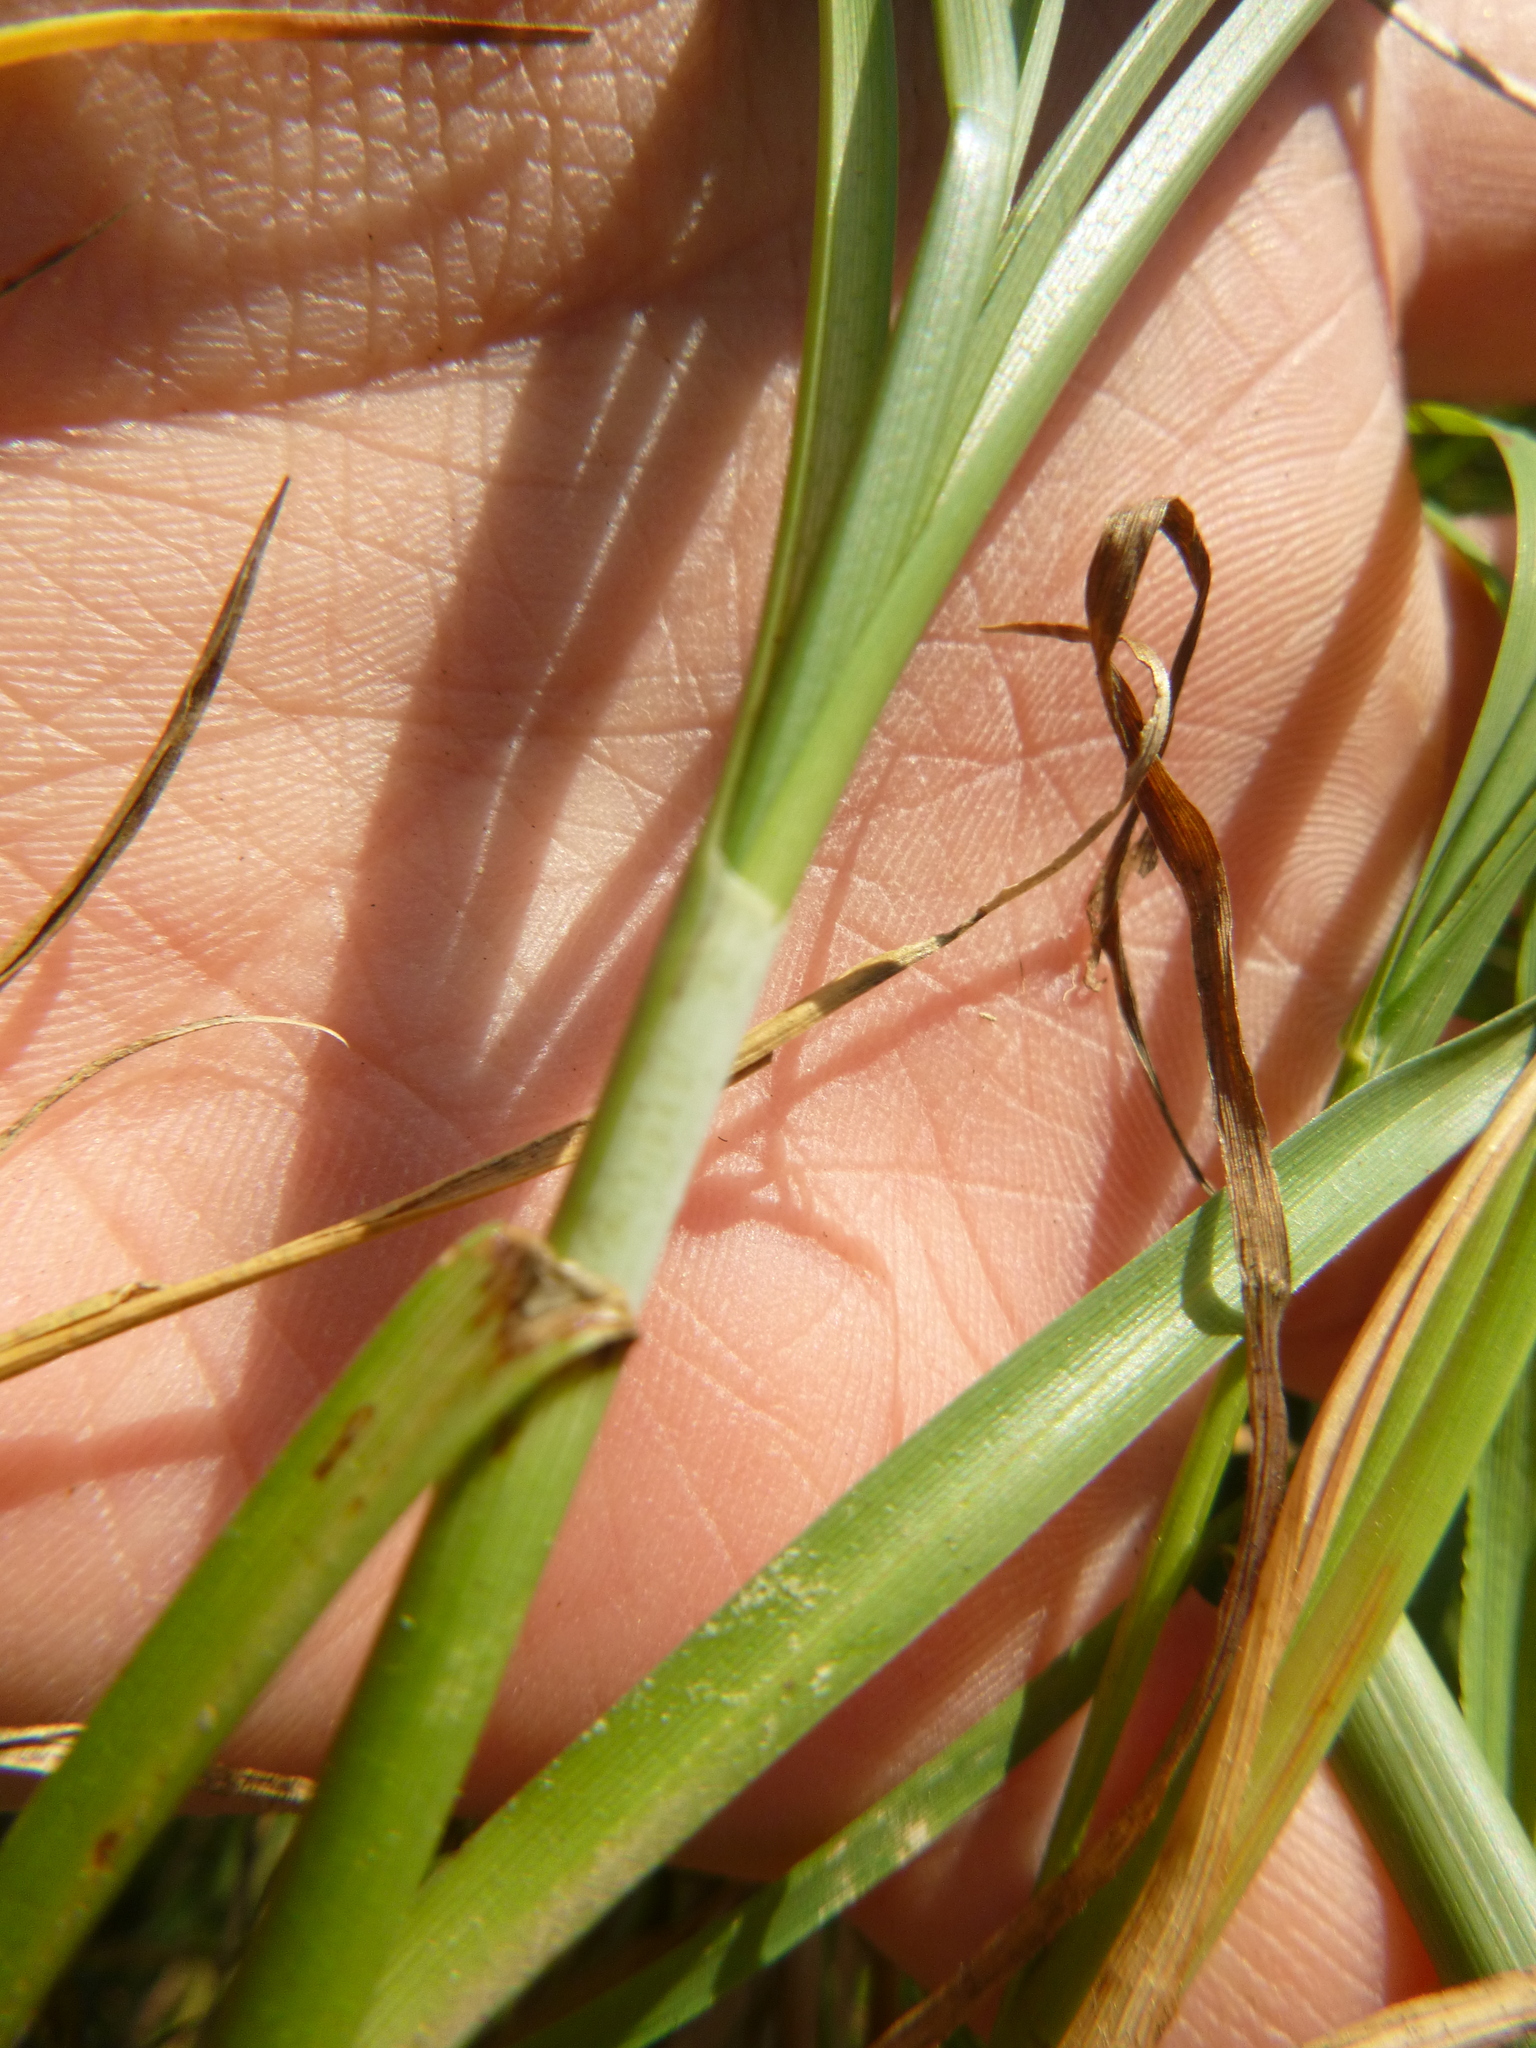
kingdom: Plantae
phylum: Tracheophyta
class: Liliopsida
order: Poales
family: Cyperaceae
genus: Carex
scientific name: Carex paniculata
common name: Greater tussock-sedge
